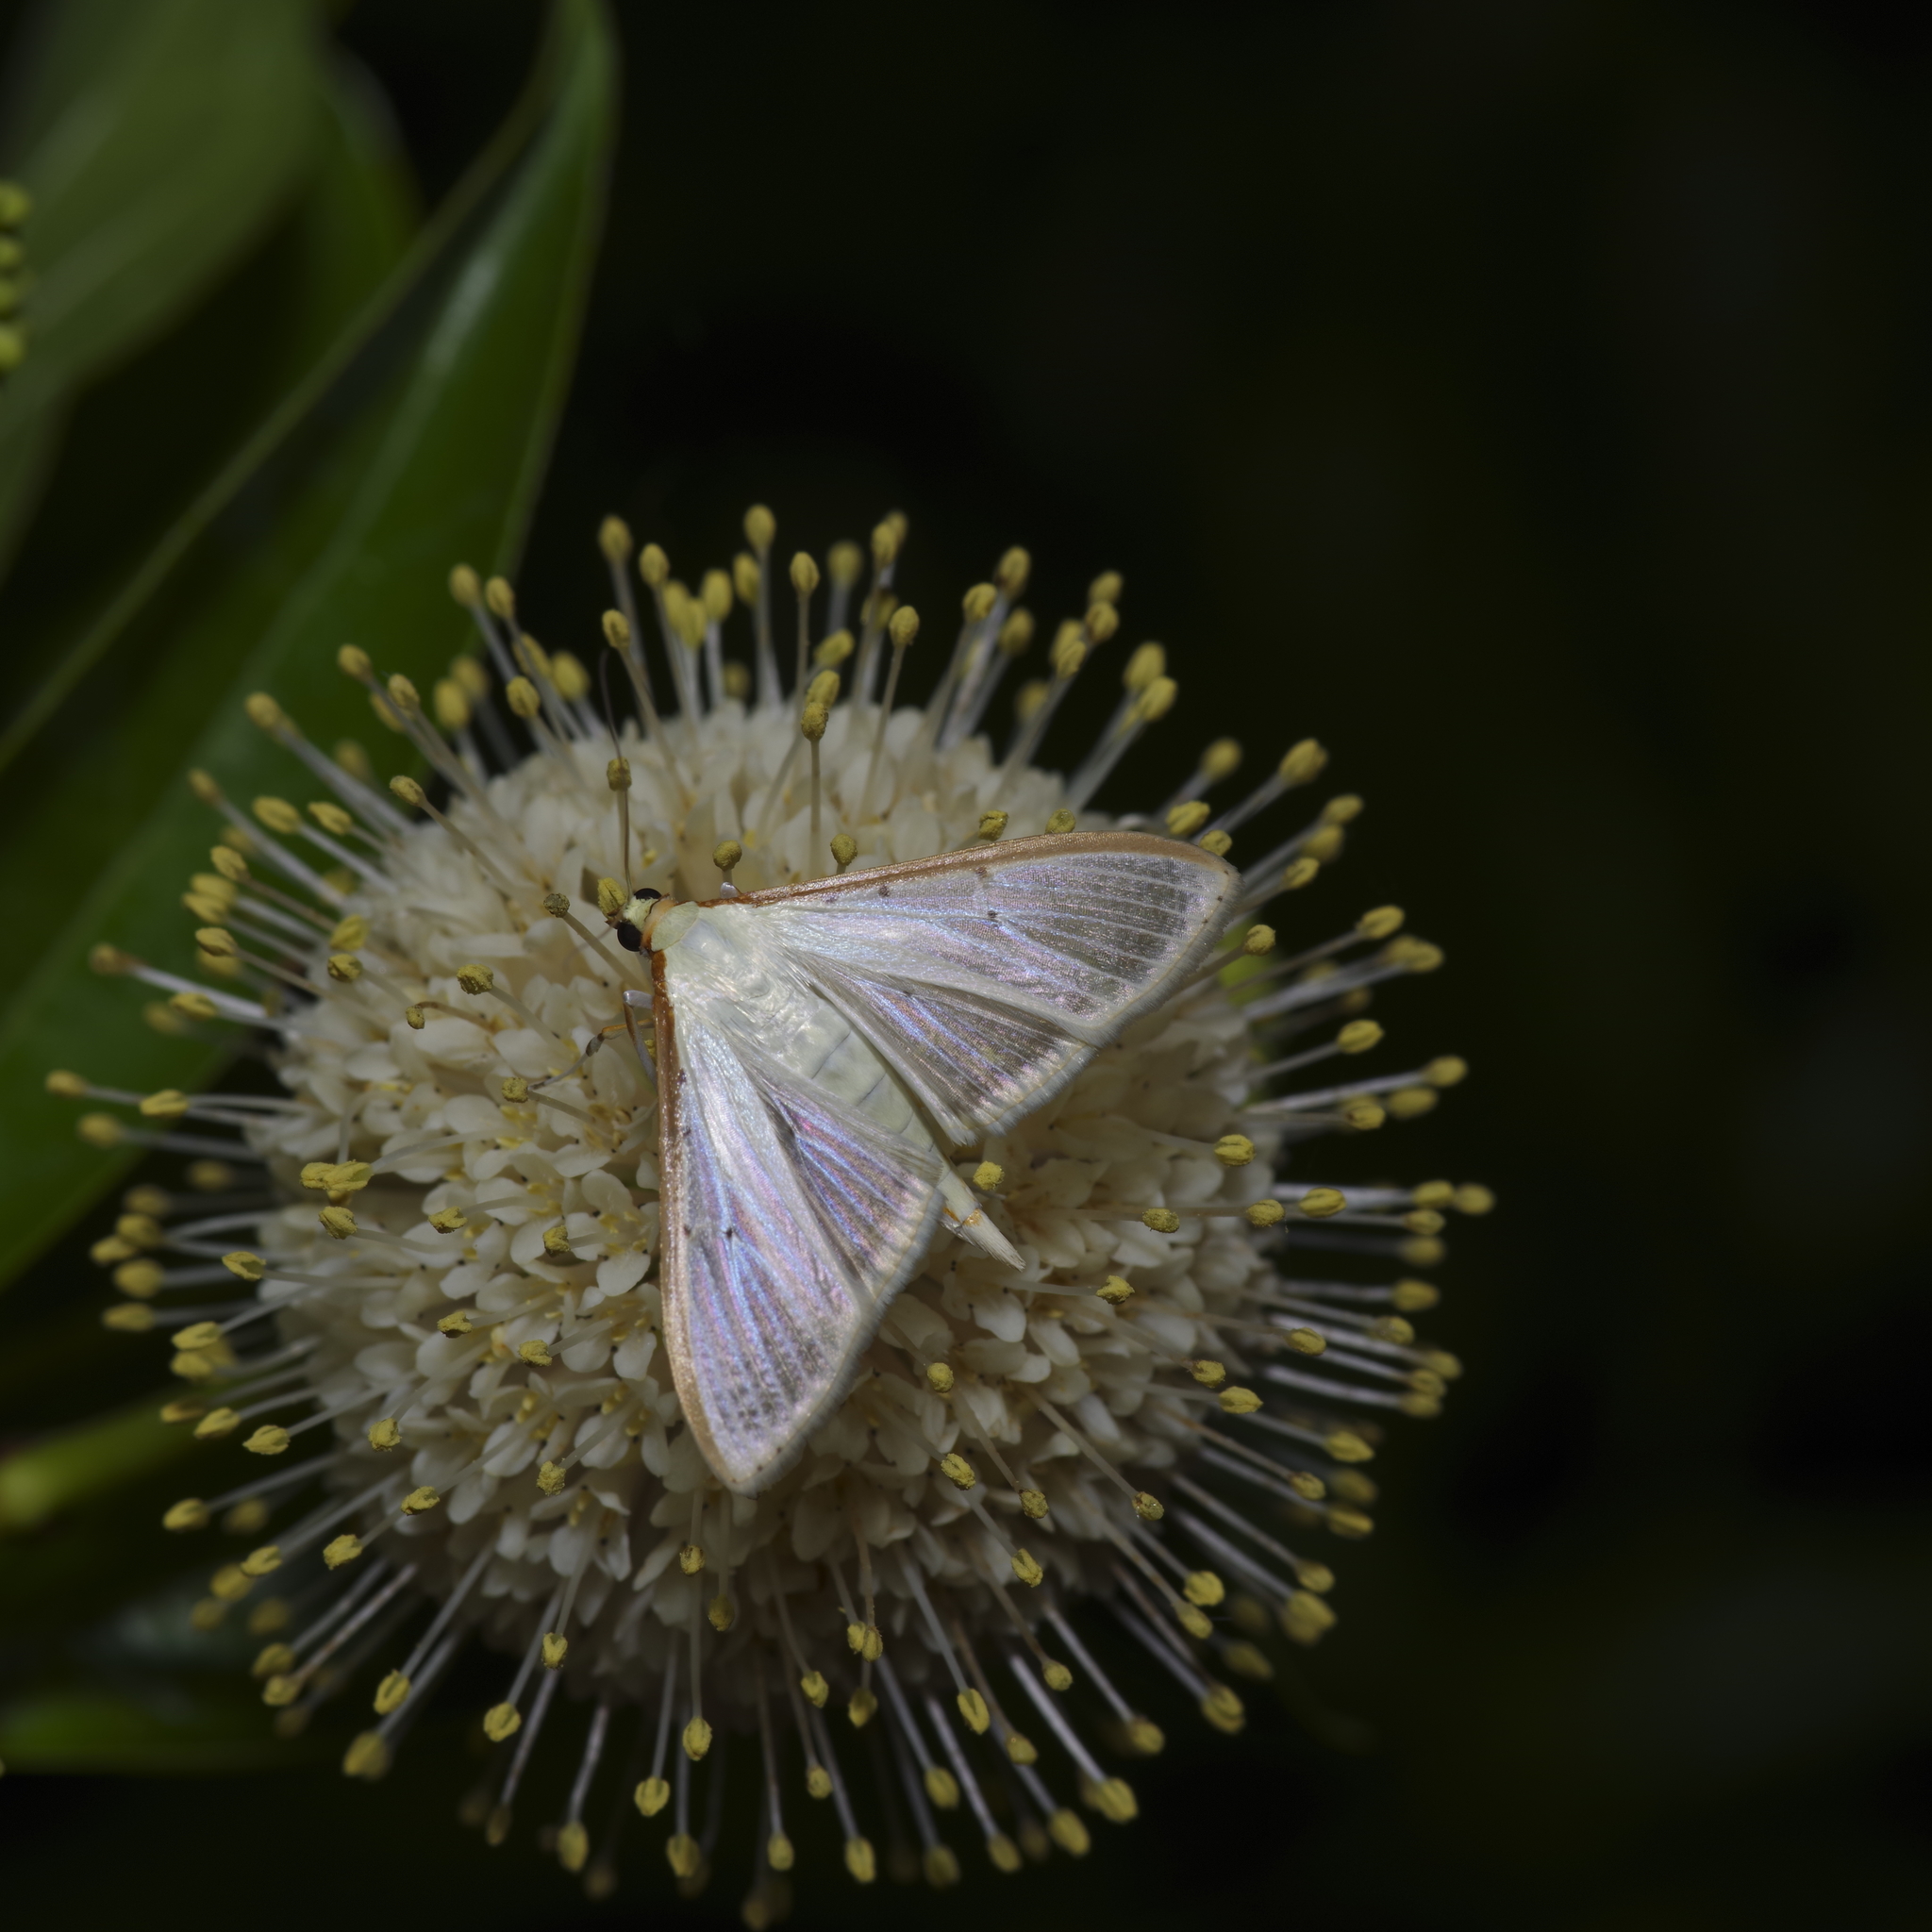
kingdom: Animalia
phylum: Arthropoda
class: Insecta
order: Lepidoptera
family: Crambidae
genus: Palpita
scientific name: Palpita quadristigmalis
